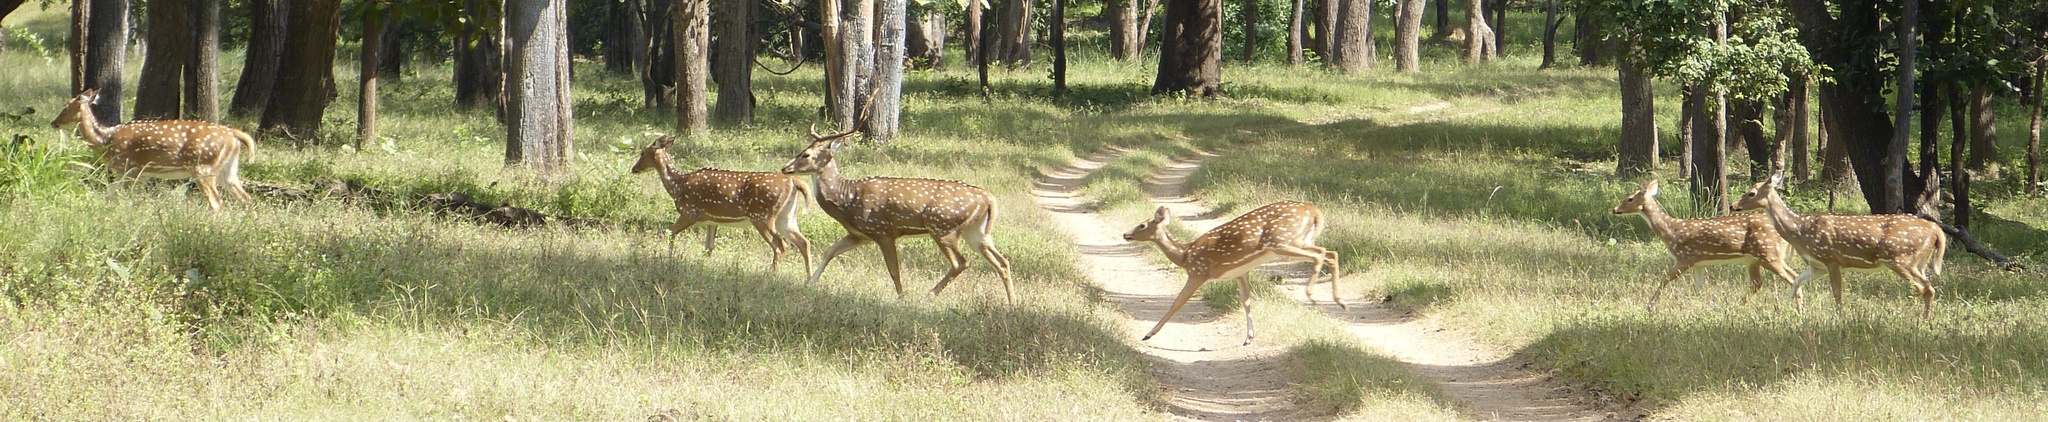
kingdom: Animalia
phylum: Chordata
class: Mammalia
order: Artiodactyla
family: Cervidae
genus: Axis
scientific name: Axis axis
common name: Chital
